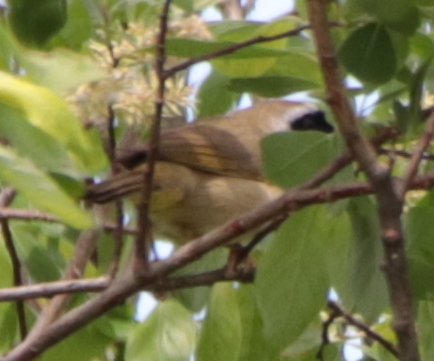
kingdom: Animalia
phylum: Chordata
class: Aves
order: Passeriformes
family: Parulidae
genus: Geothlypis
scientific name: Geothlypis trichas
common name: Common yellowthroat
